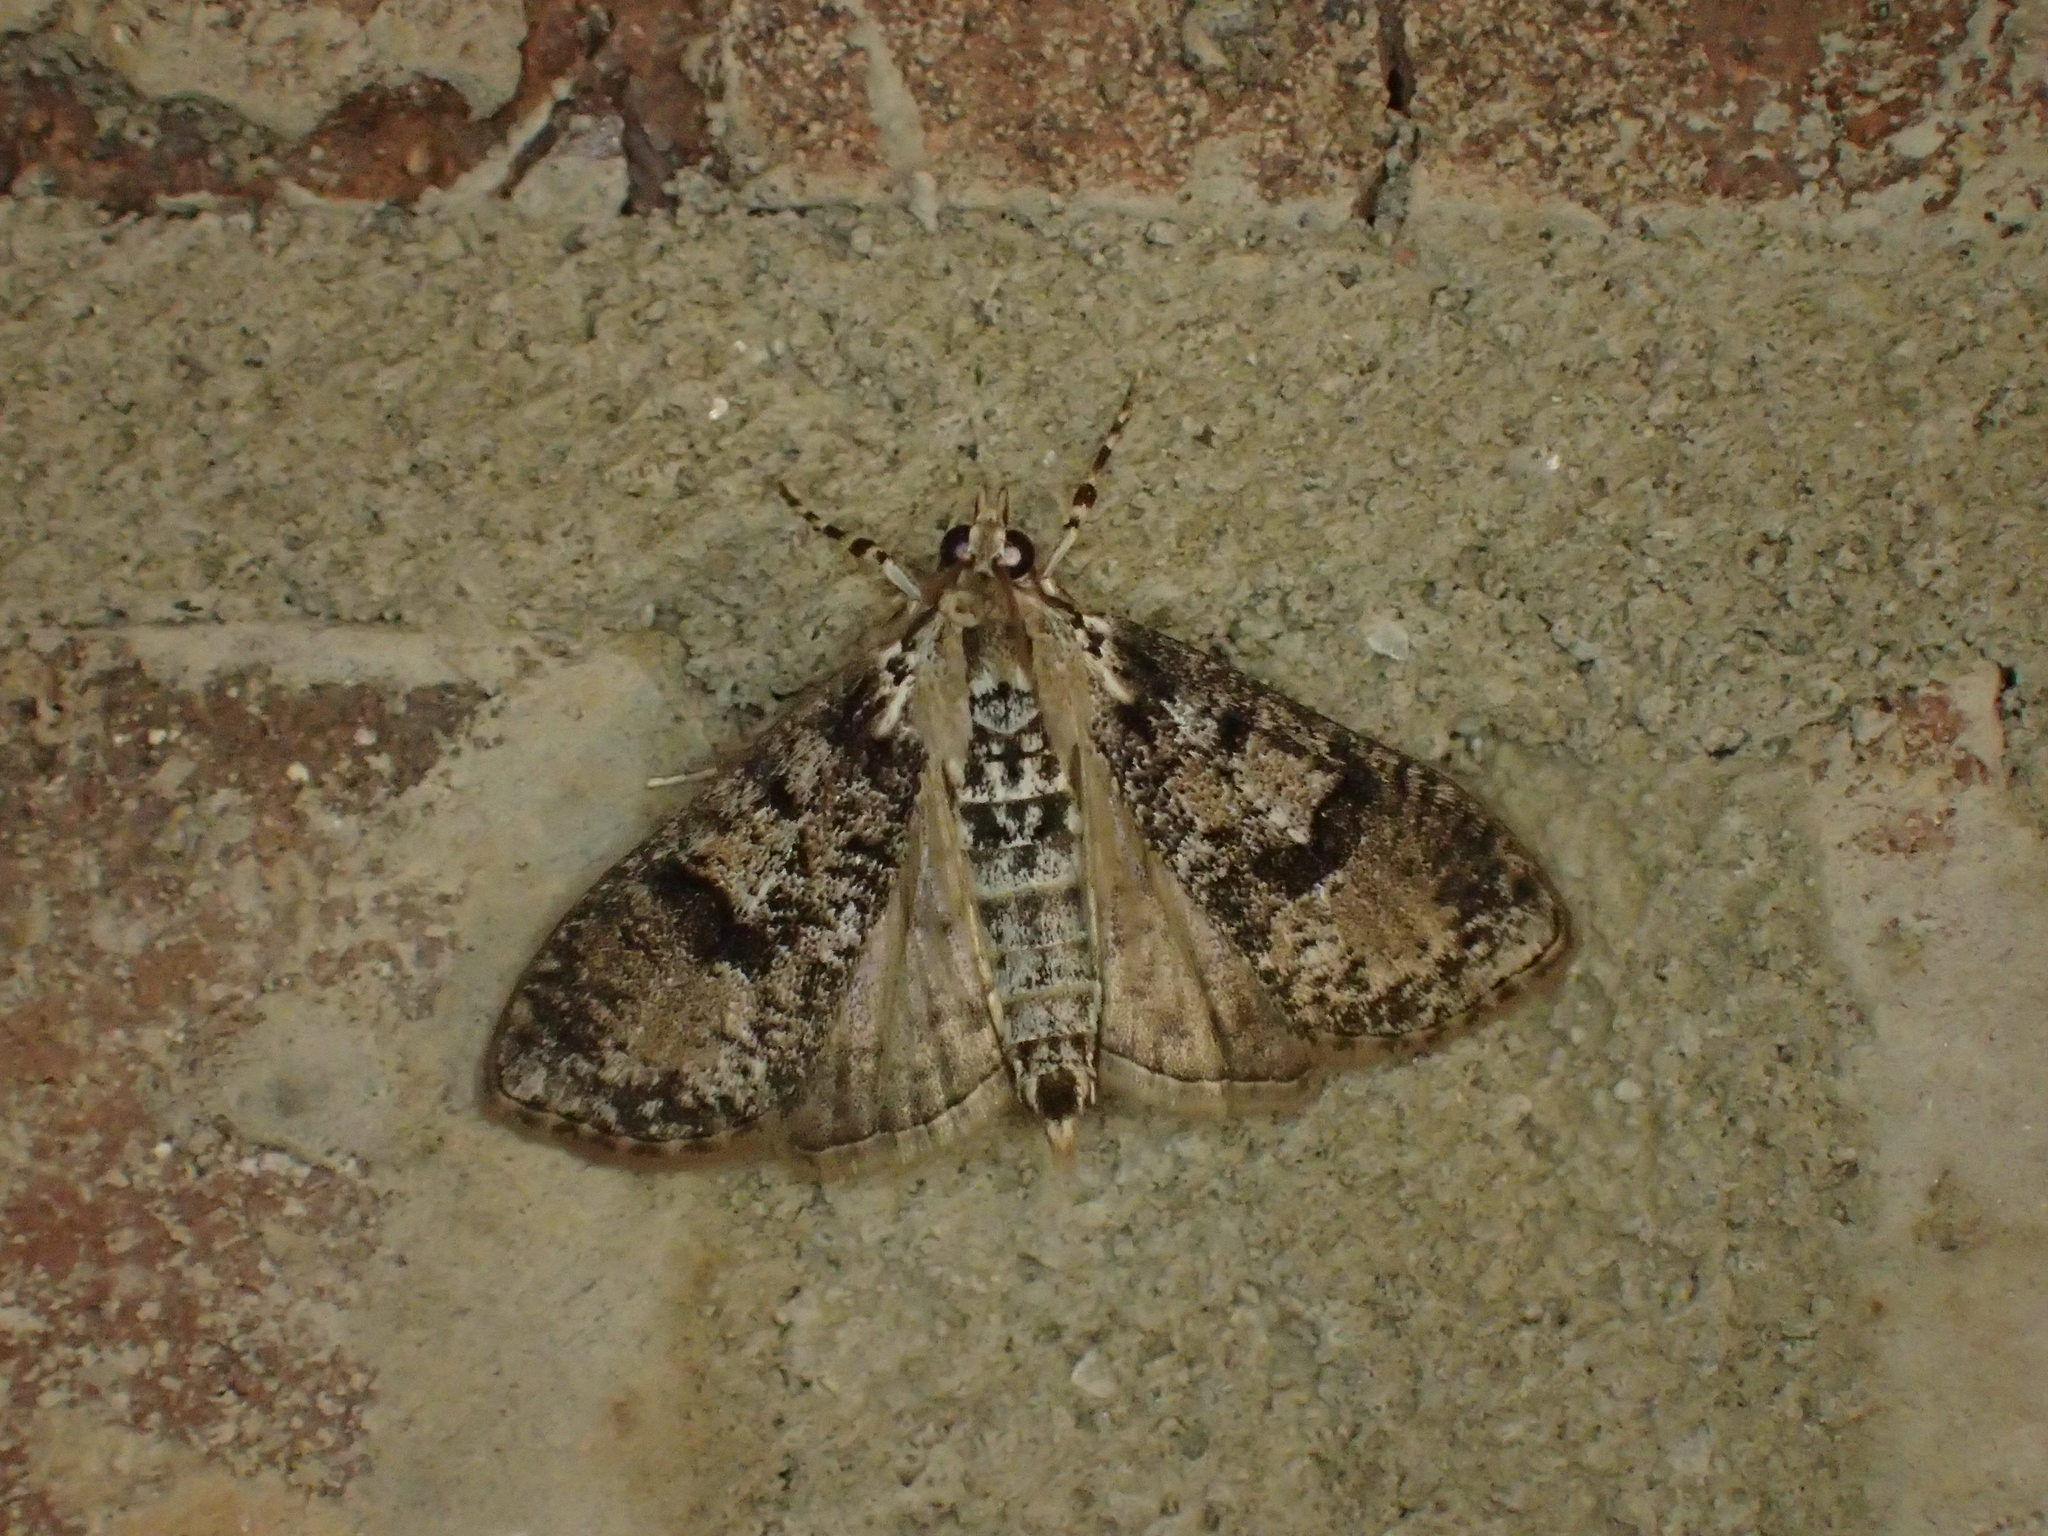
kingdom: Animalia
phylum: Arthropoda
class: Insecta
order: Lepidoptera
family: Crambidae
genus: Palpita
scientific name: Palpita magniferalis
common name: Splendid palpita moth
